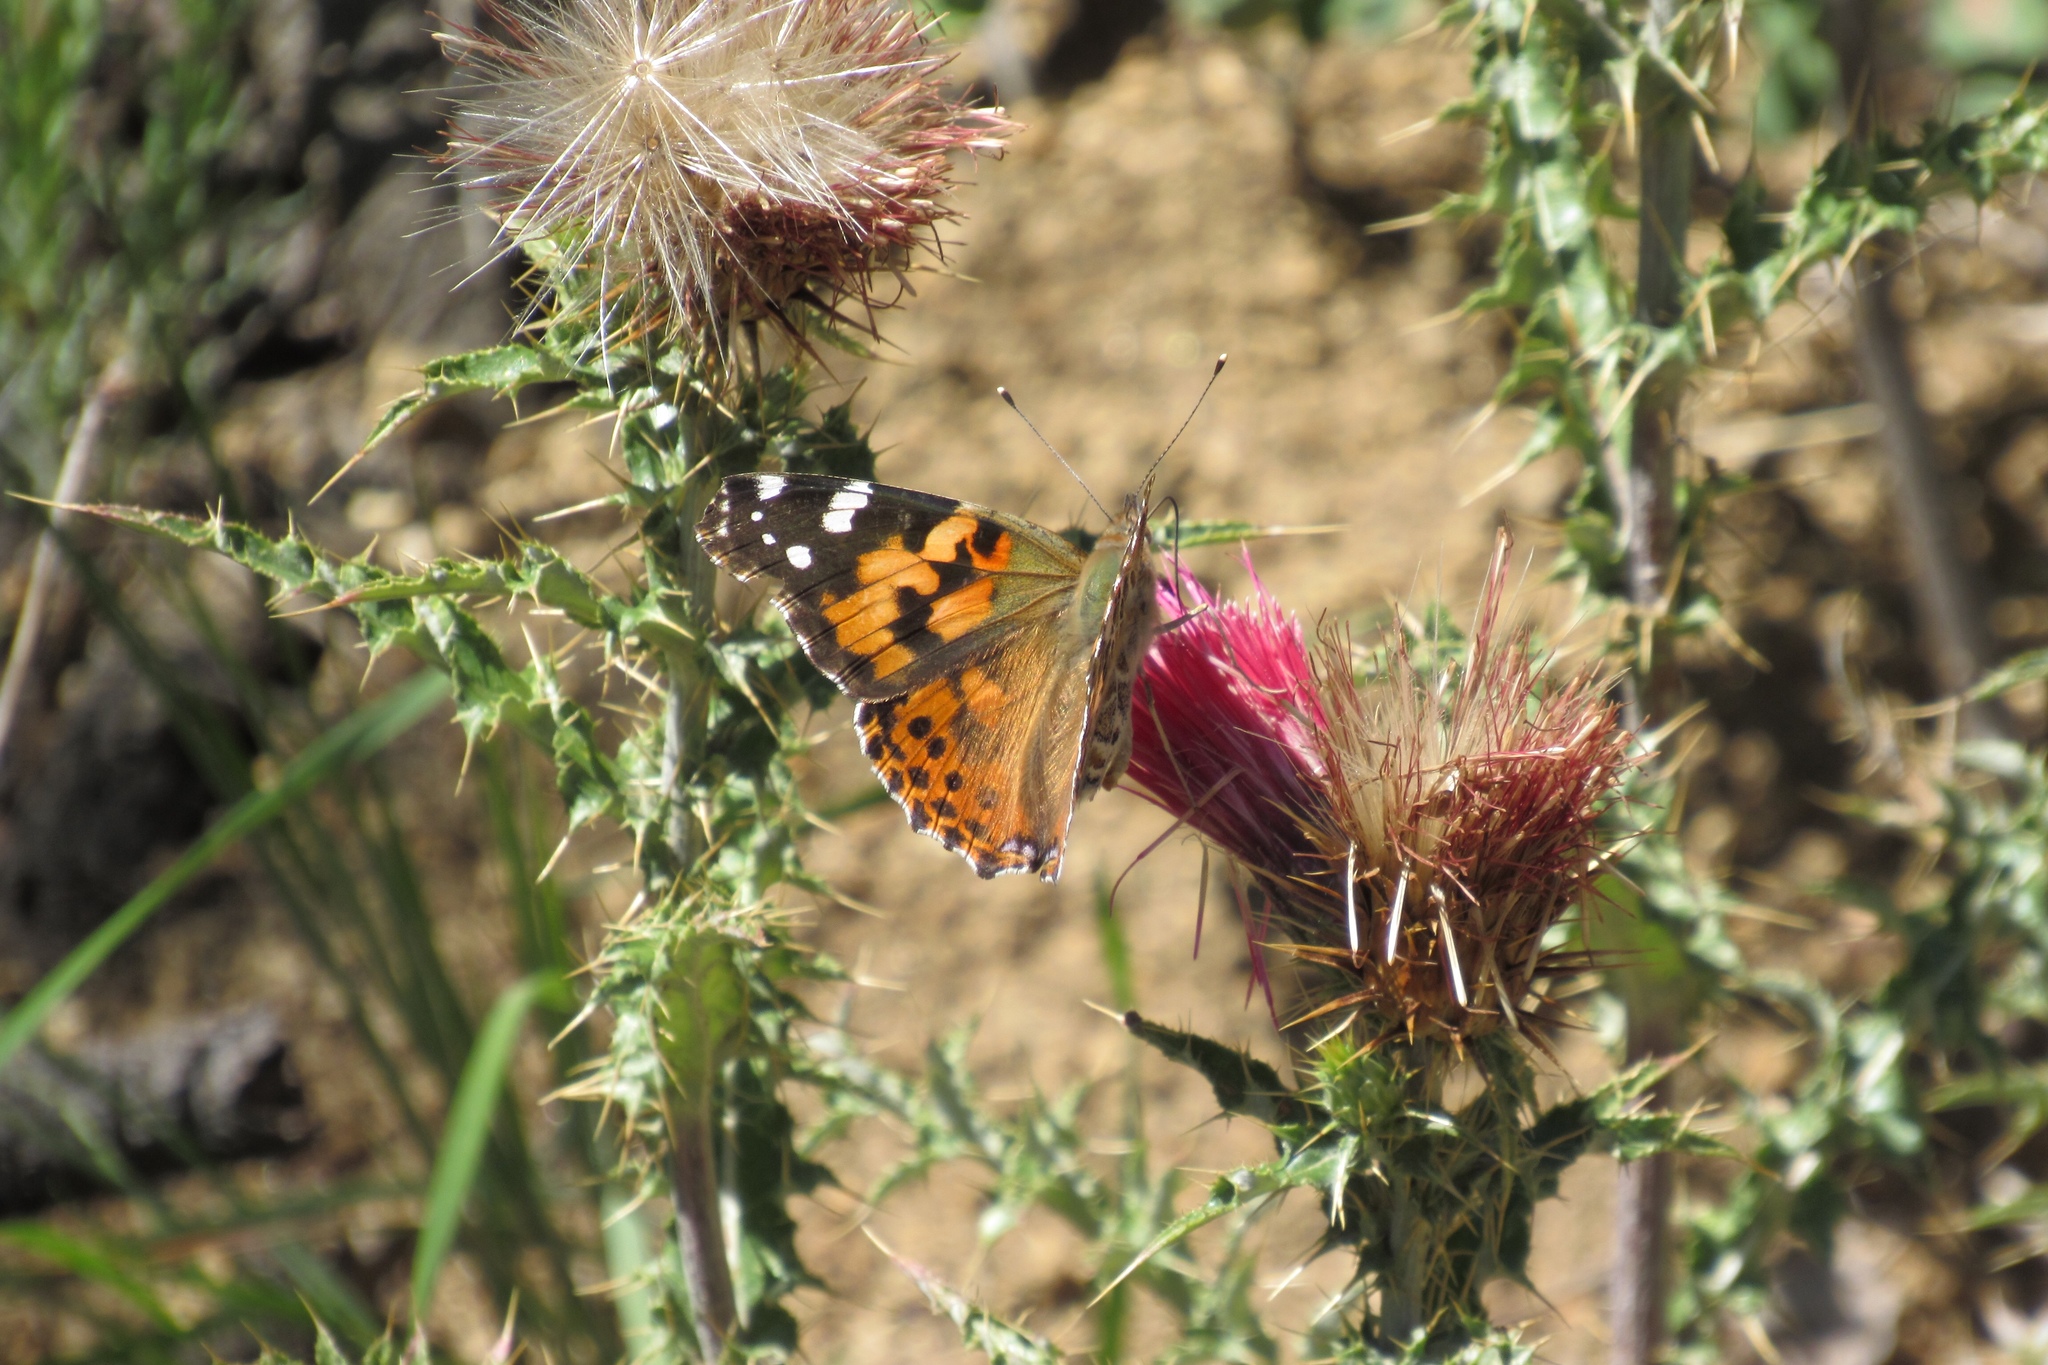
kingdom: Animalia
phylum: Arthropoda
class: Insecta
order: Lepidoptera
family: Nymphalidae
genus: Vanessa
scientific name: Vanessa cardui
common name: Painted lady
